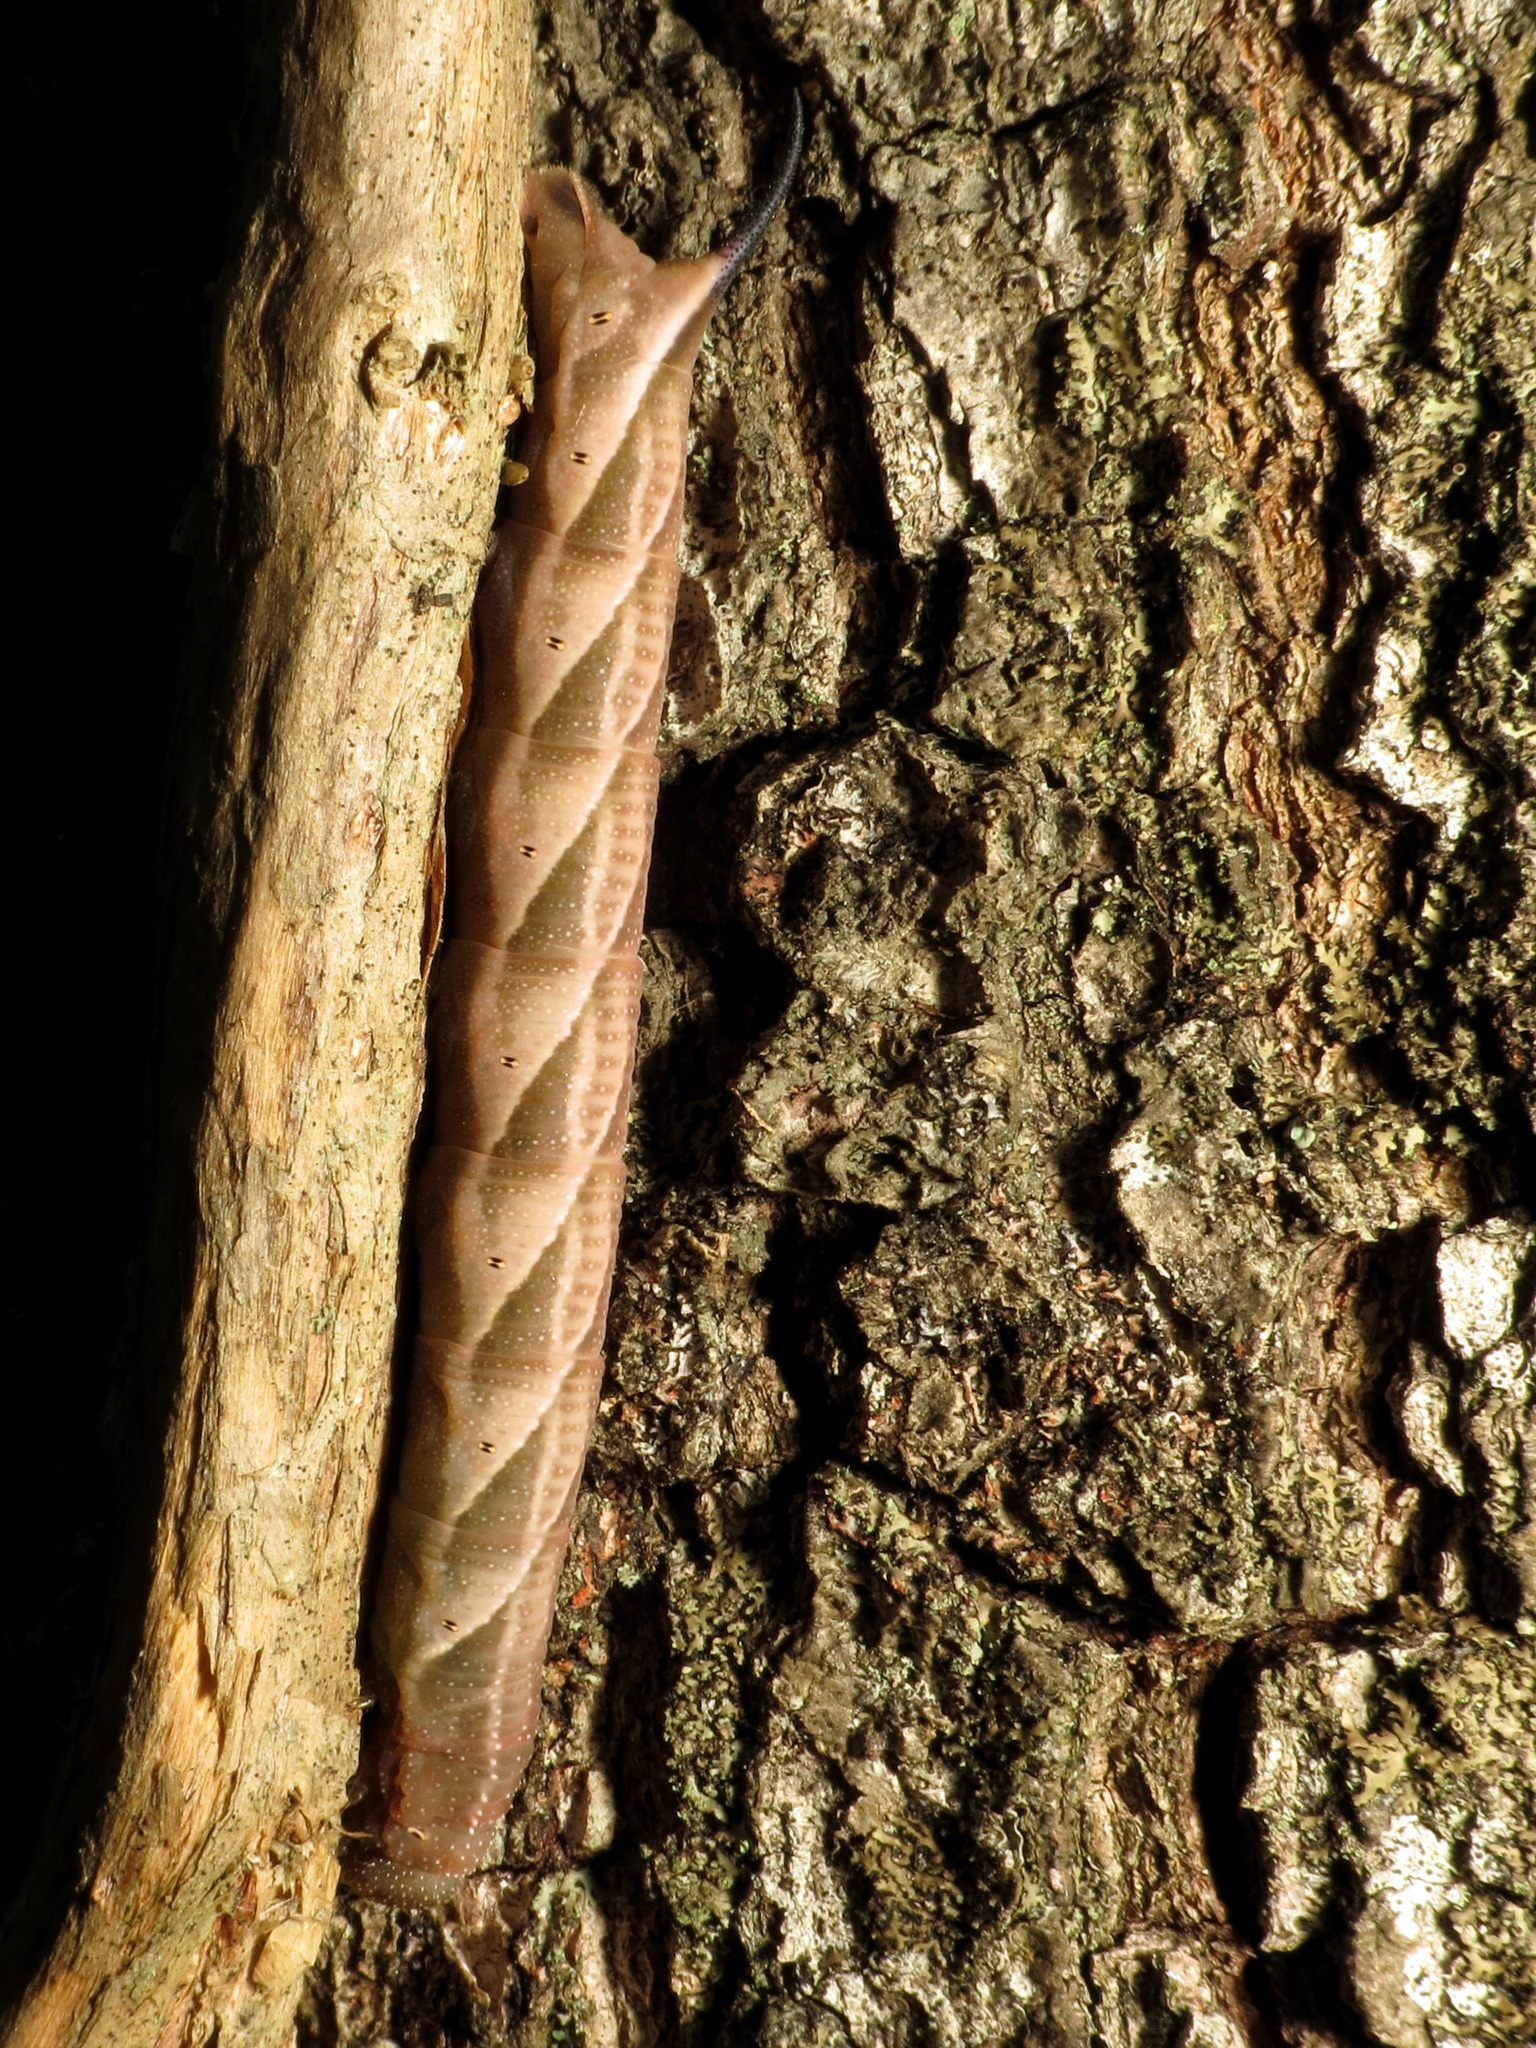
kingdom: Animalia
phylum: Arthropoda
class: Insecta
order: Lepidoptera
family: Sphingidae
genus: Paratrea
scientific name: Paratrea plebeja
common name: Plebian sphinx
